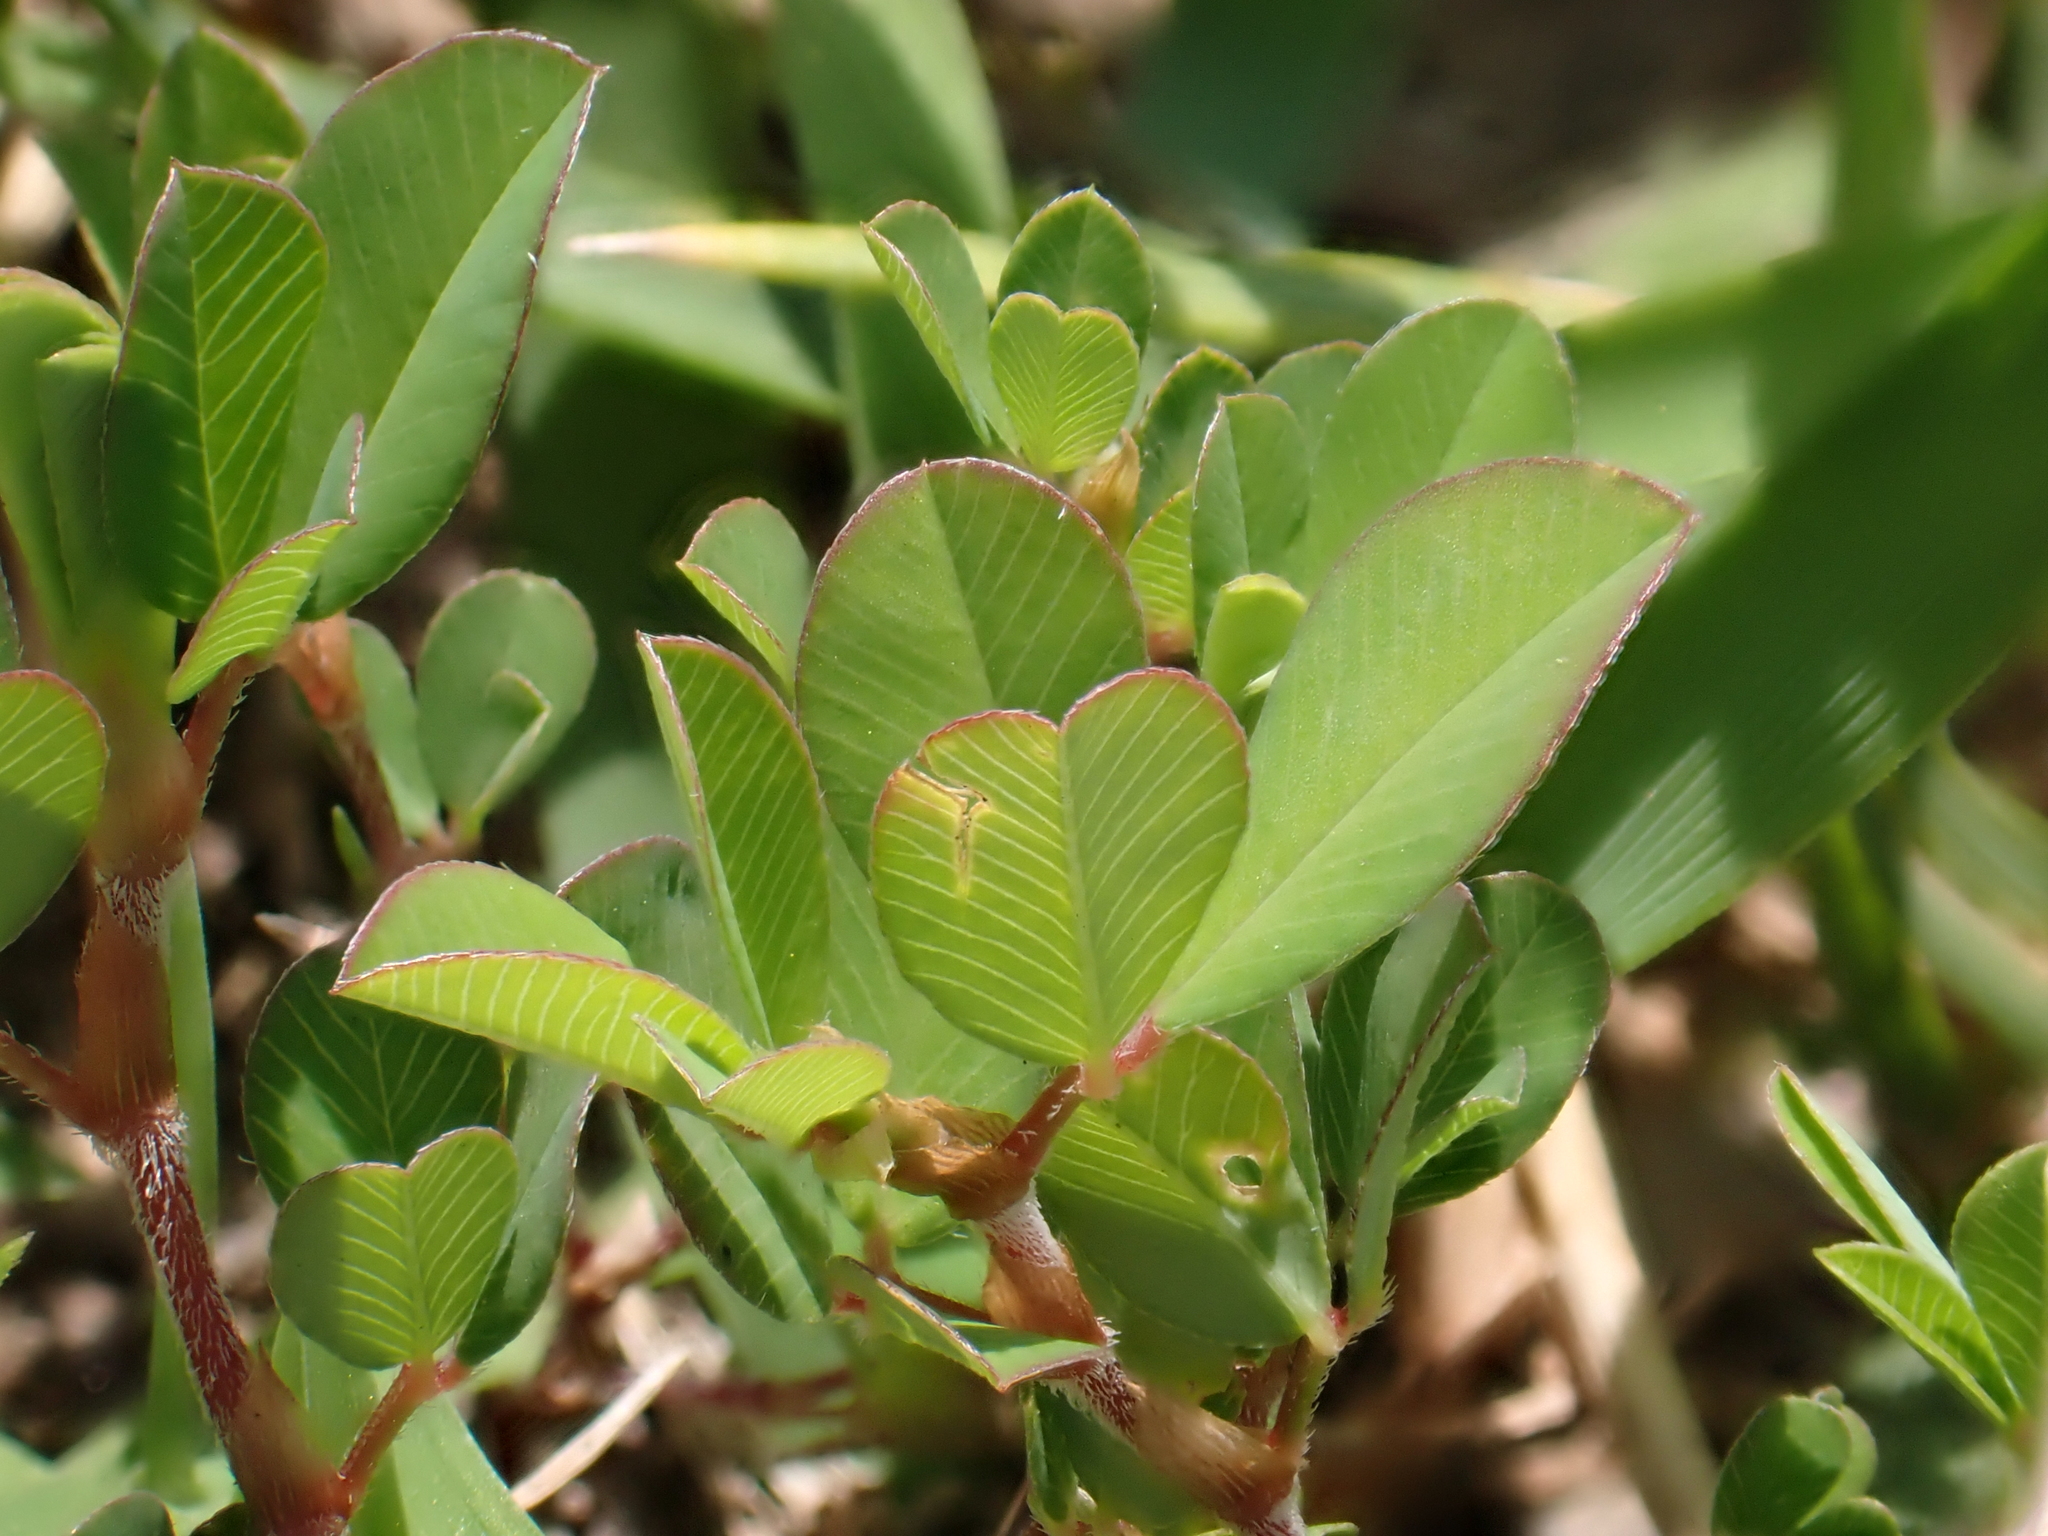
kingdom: Plantae
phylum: Tracheophyta
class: Magnoliopsida
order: Fabales
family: Fabaceae
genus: Trifolium
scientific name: Trifolium campestre
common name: Field clover
